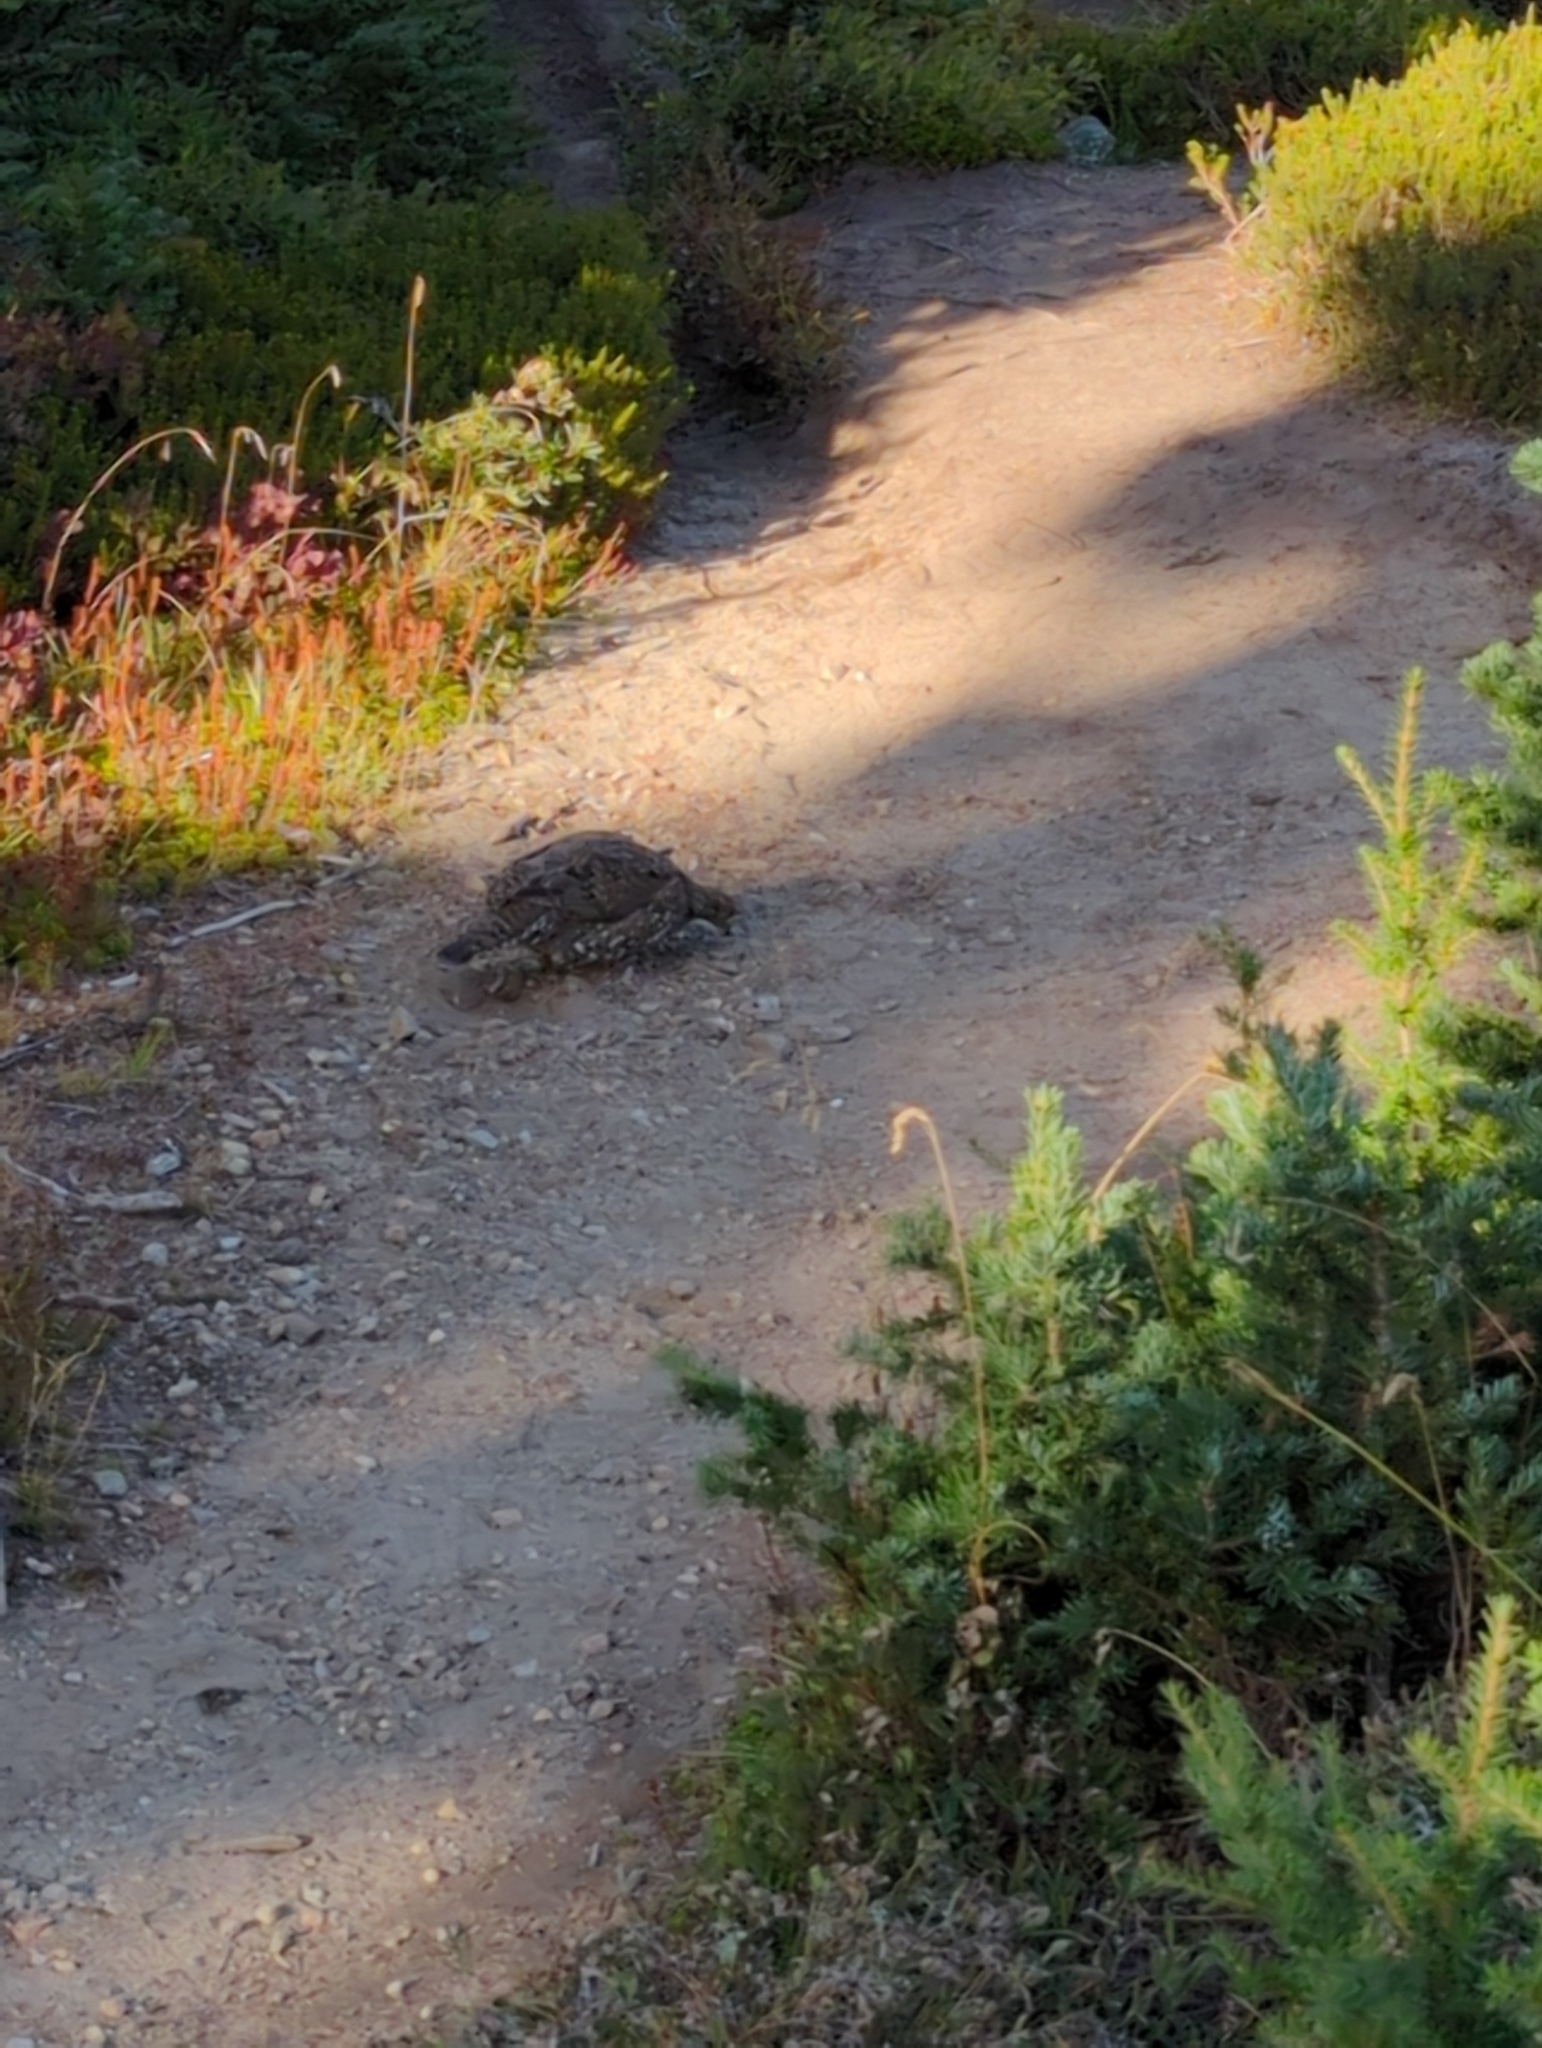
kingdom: Animalia
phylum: Chordata
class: Aves
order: Galliformes
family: Phasianidae
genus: Dendragapus
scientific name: Dendragapus fuliginosus
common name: Sooty grouse
